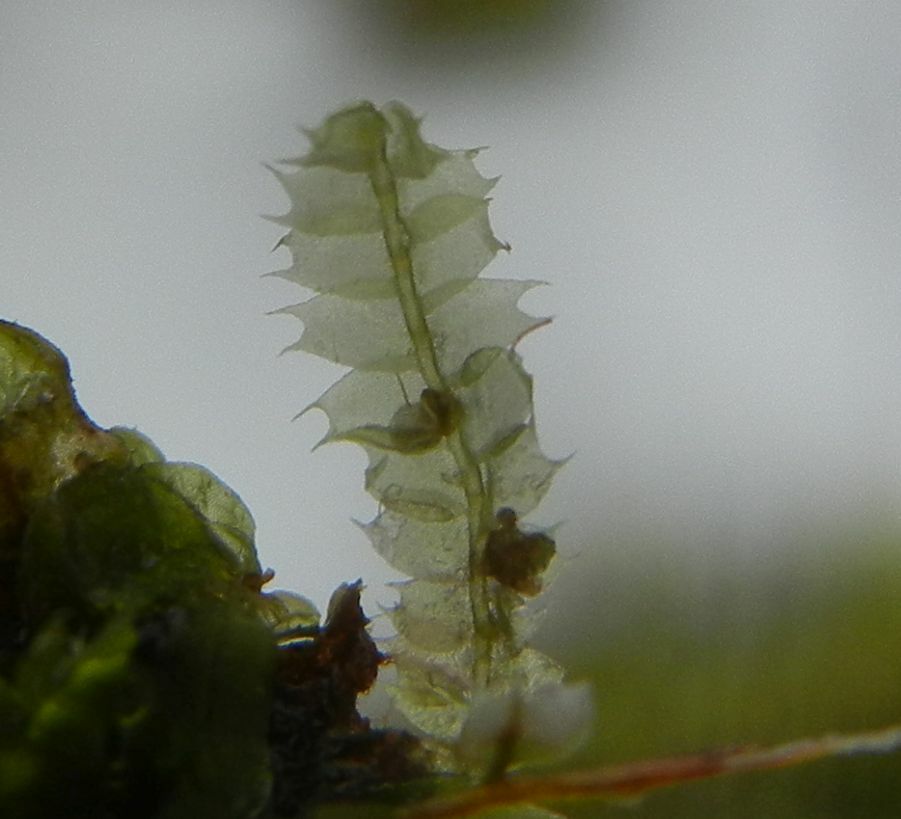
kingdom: Plantae
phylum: Marchantiophyta
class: Jungermanniopsida
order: Jungermanniales
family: Lophocoleaceae
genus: Lophocolea
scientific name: Lophocolea bidentata
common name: Bifid crestwort
